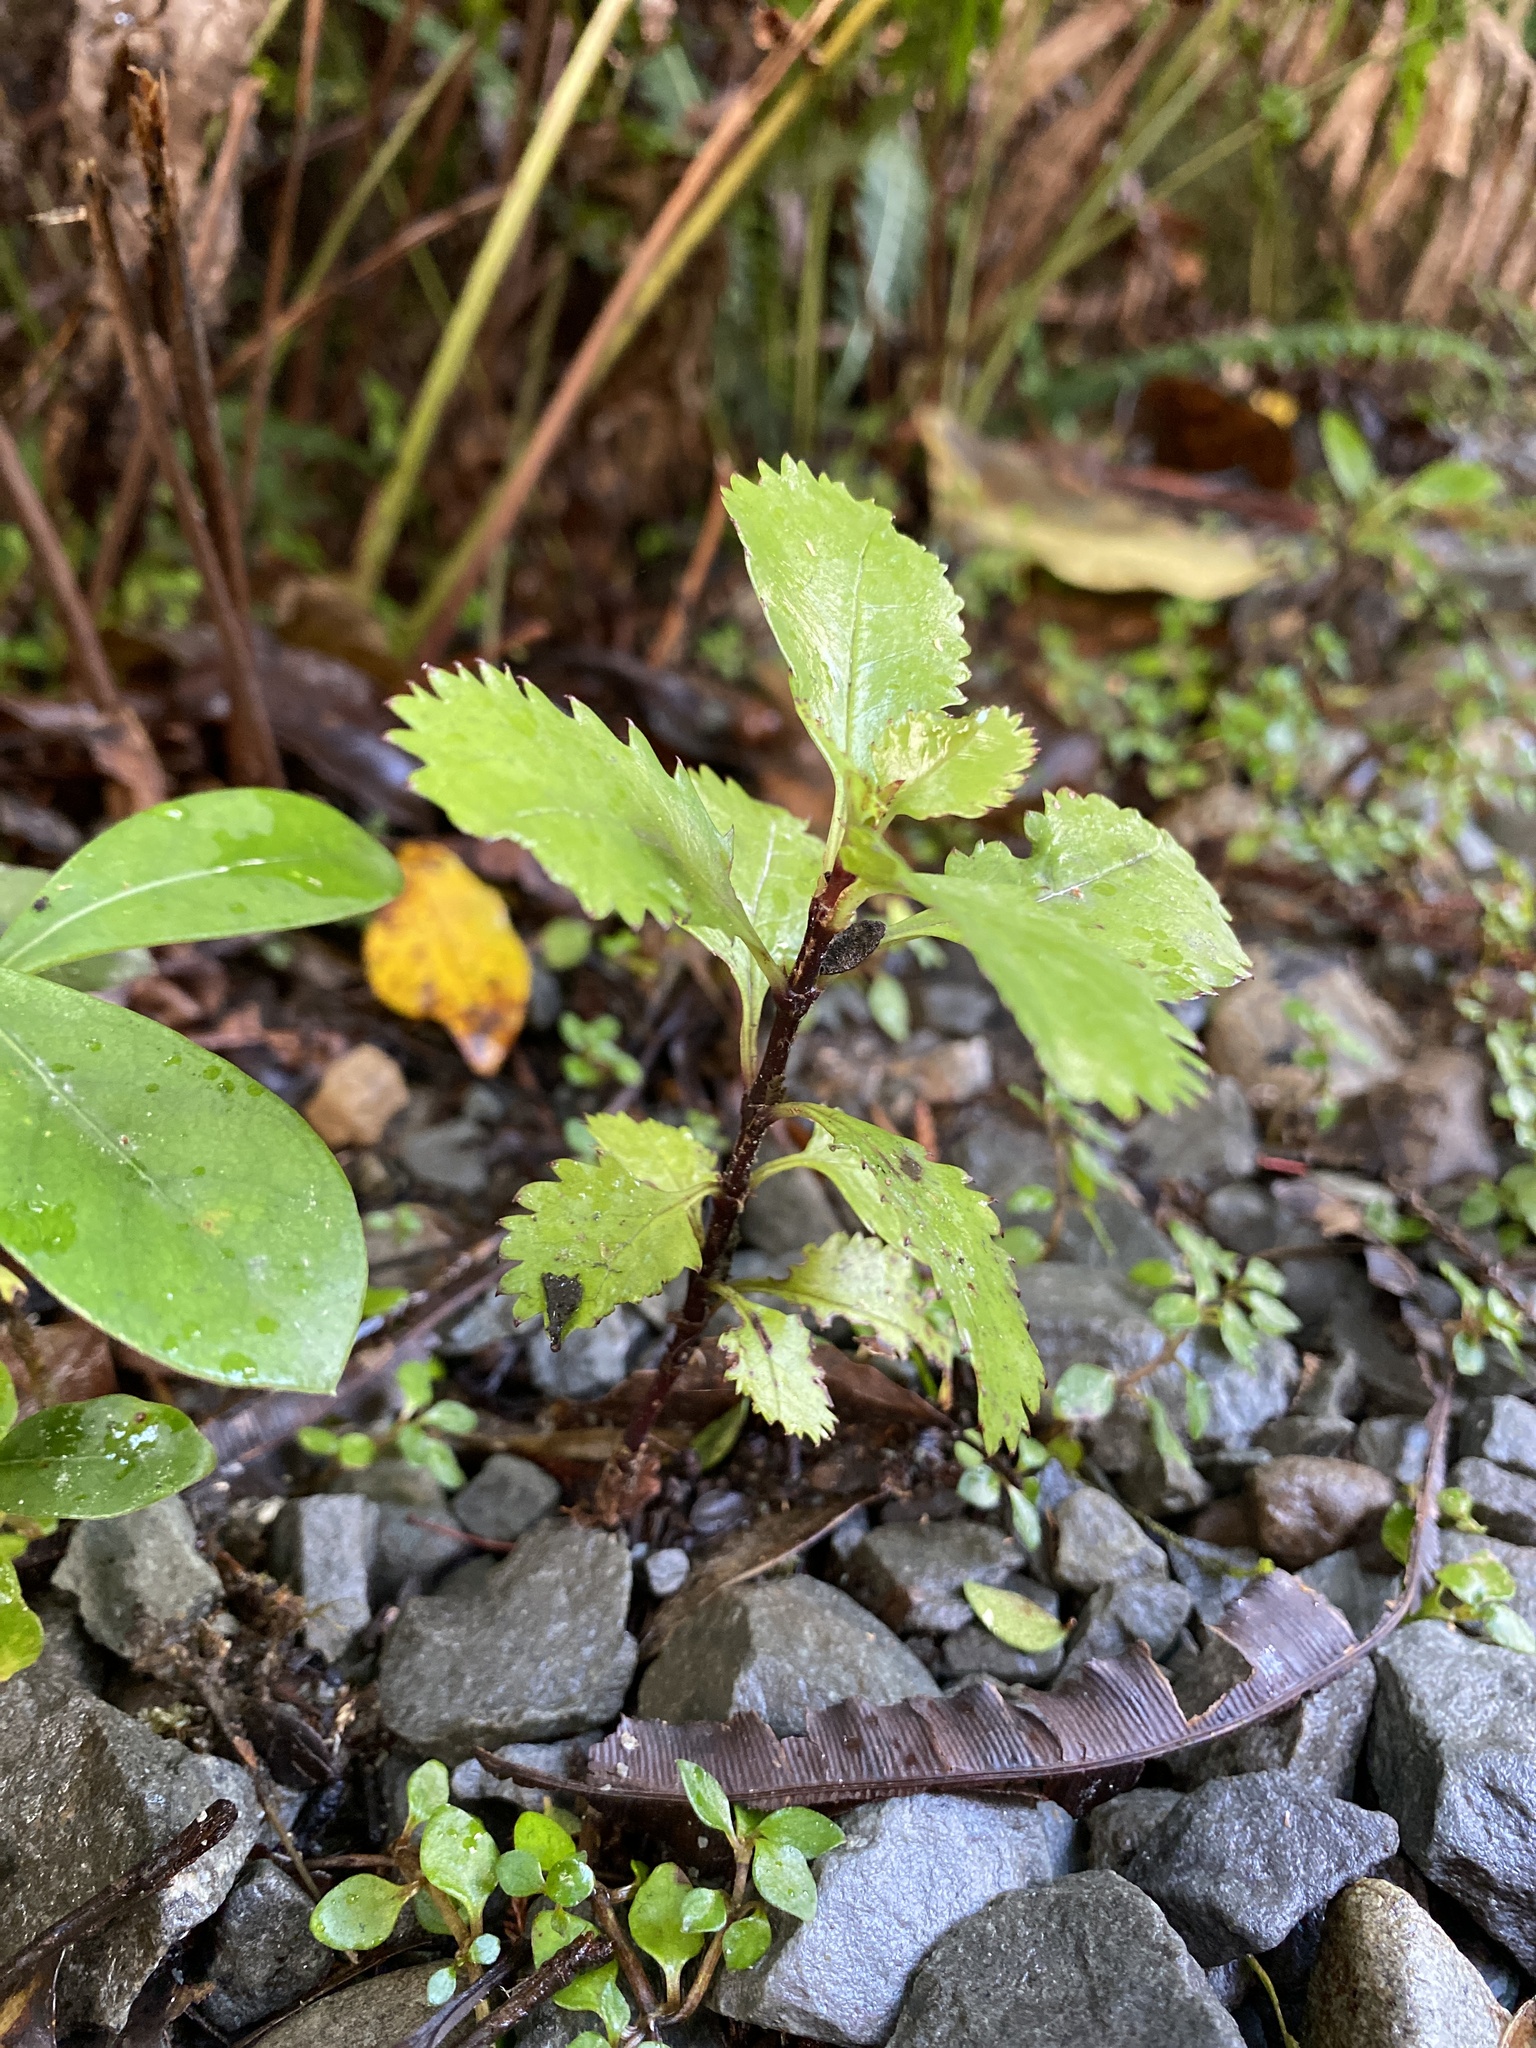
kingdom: Plantae
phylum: Tracheophyta
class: Magnoliopsida
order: Chloranthales
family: Chloranthaceae
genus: Ascarina
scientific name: Ascarina lucida
